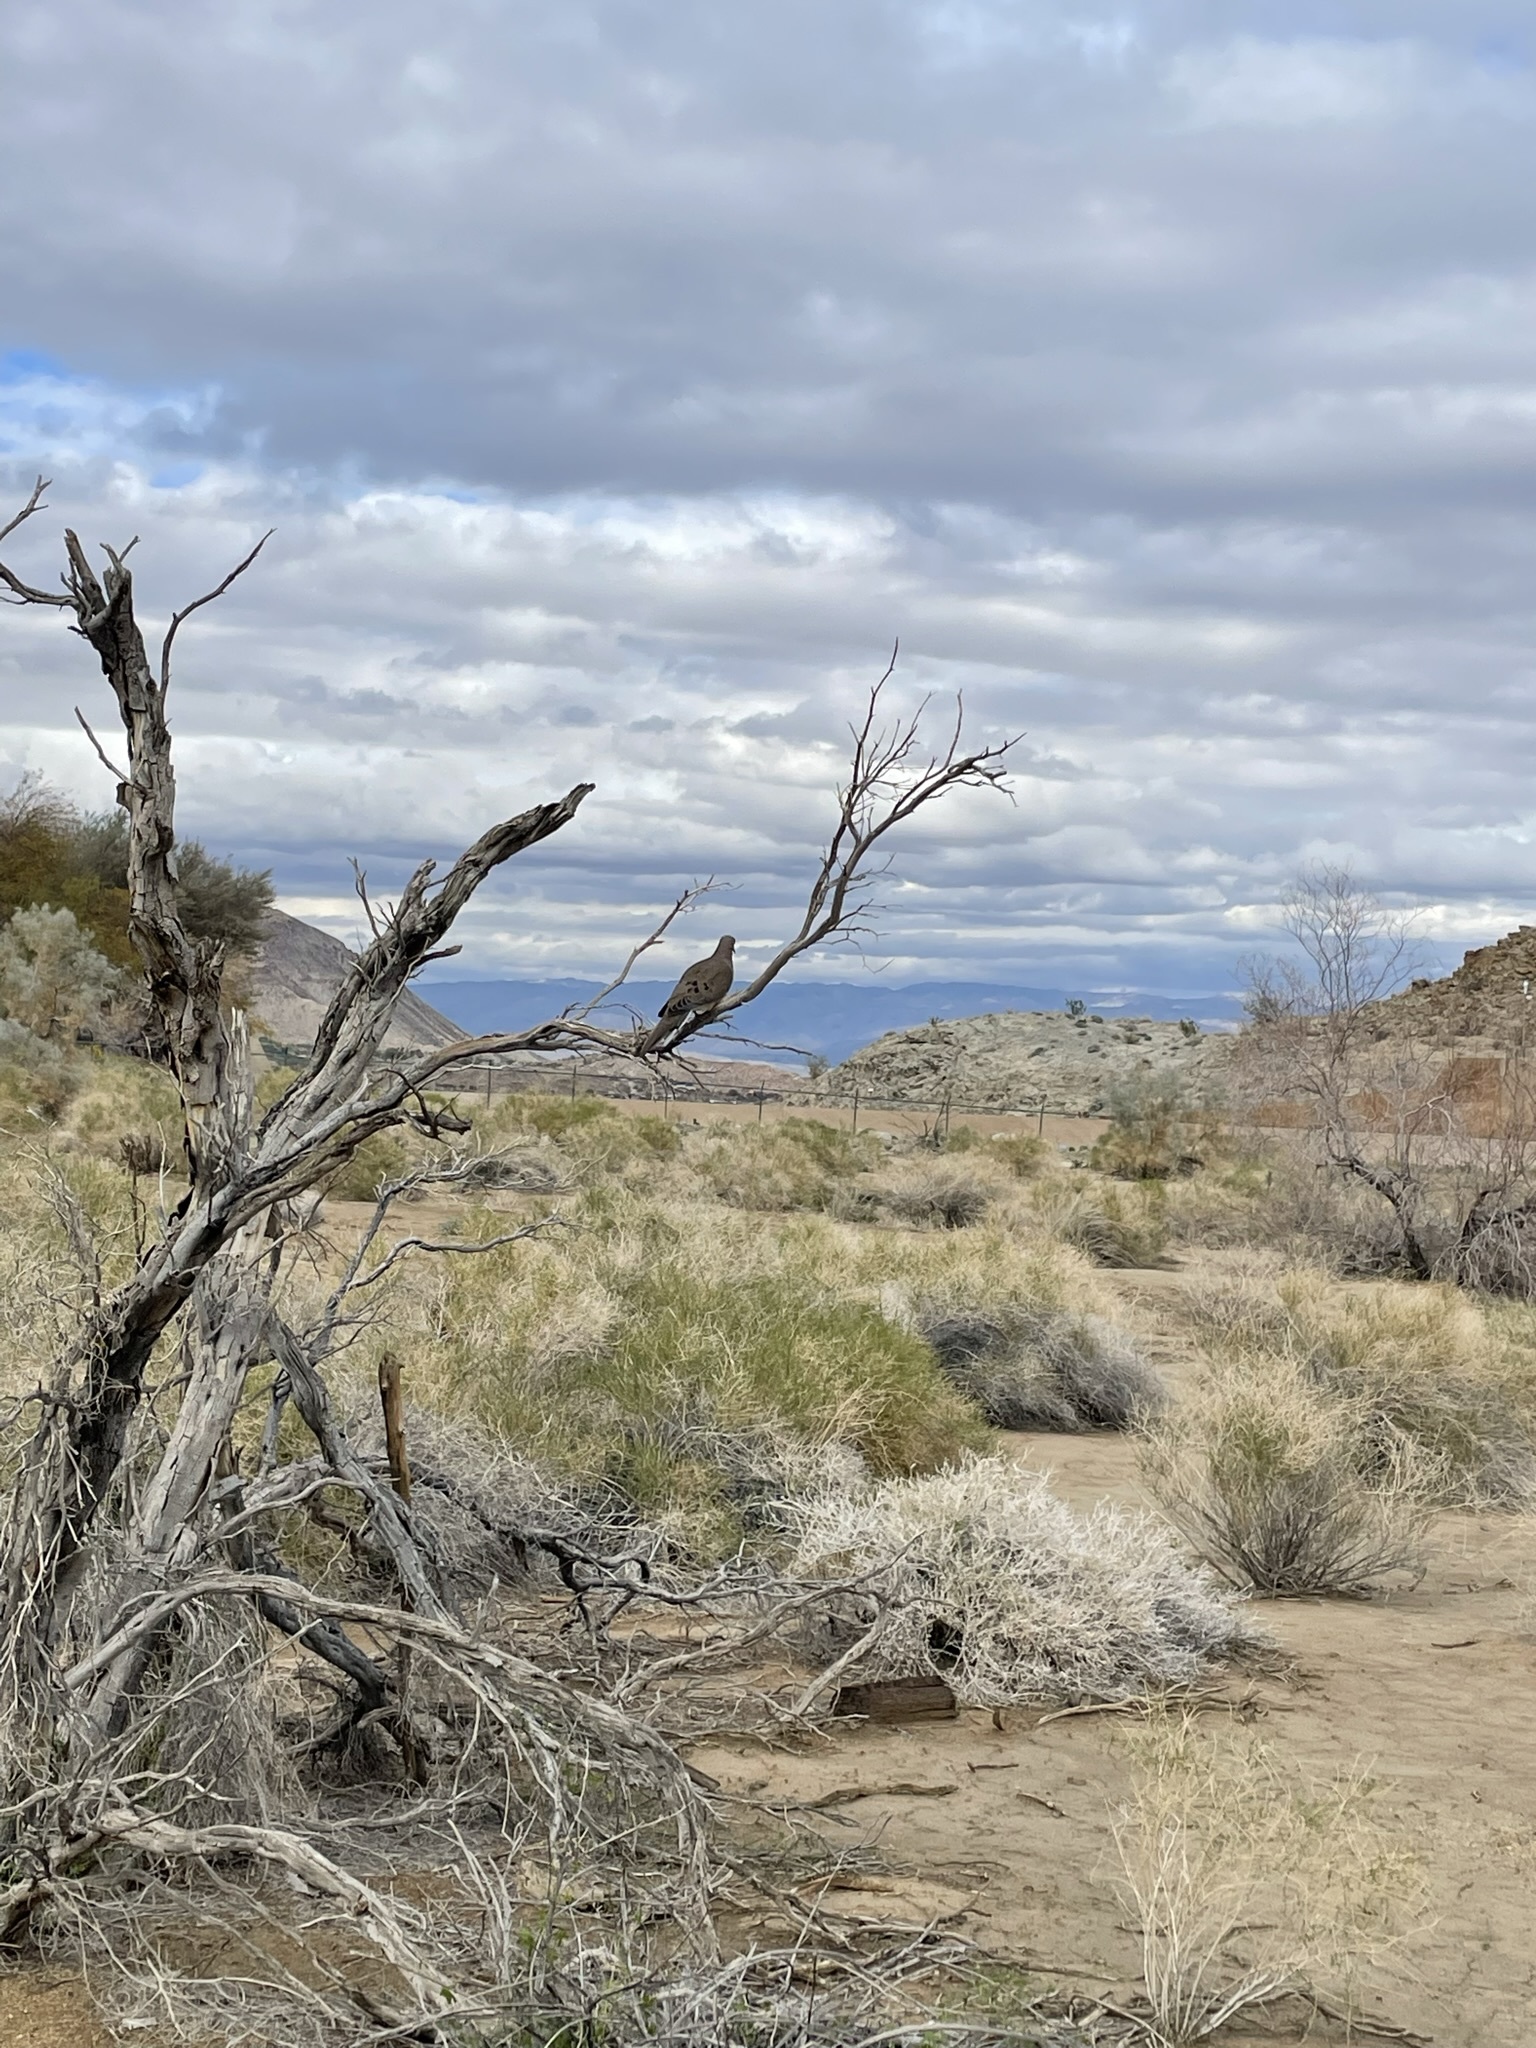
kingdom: Animalia
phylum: Chordata
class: Aves
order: Columbiformes
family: Columbidae
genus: Zenaida
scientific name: Zenaida macroura
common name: Mourning dove
